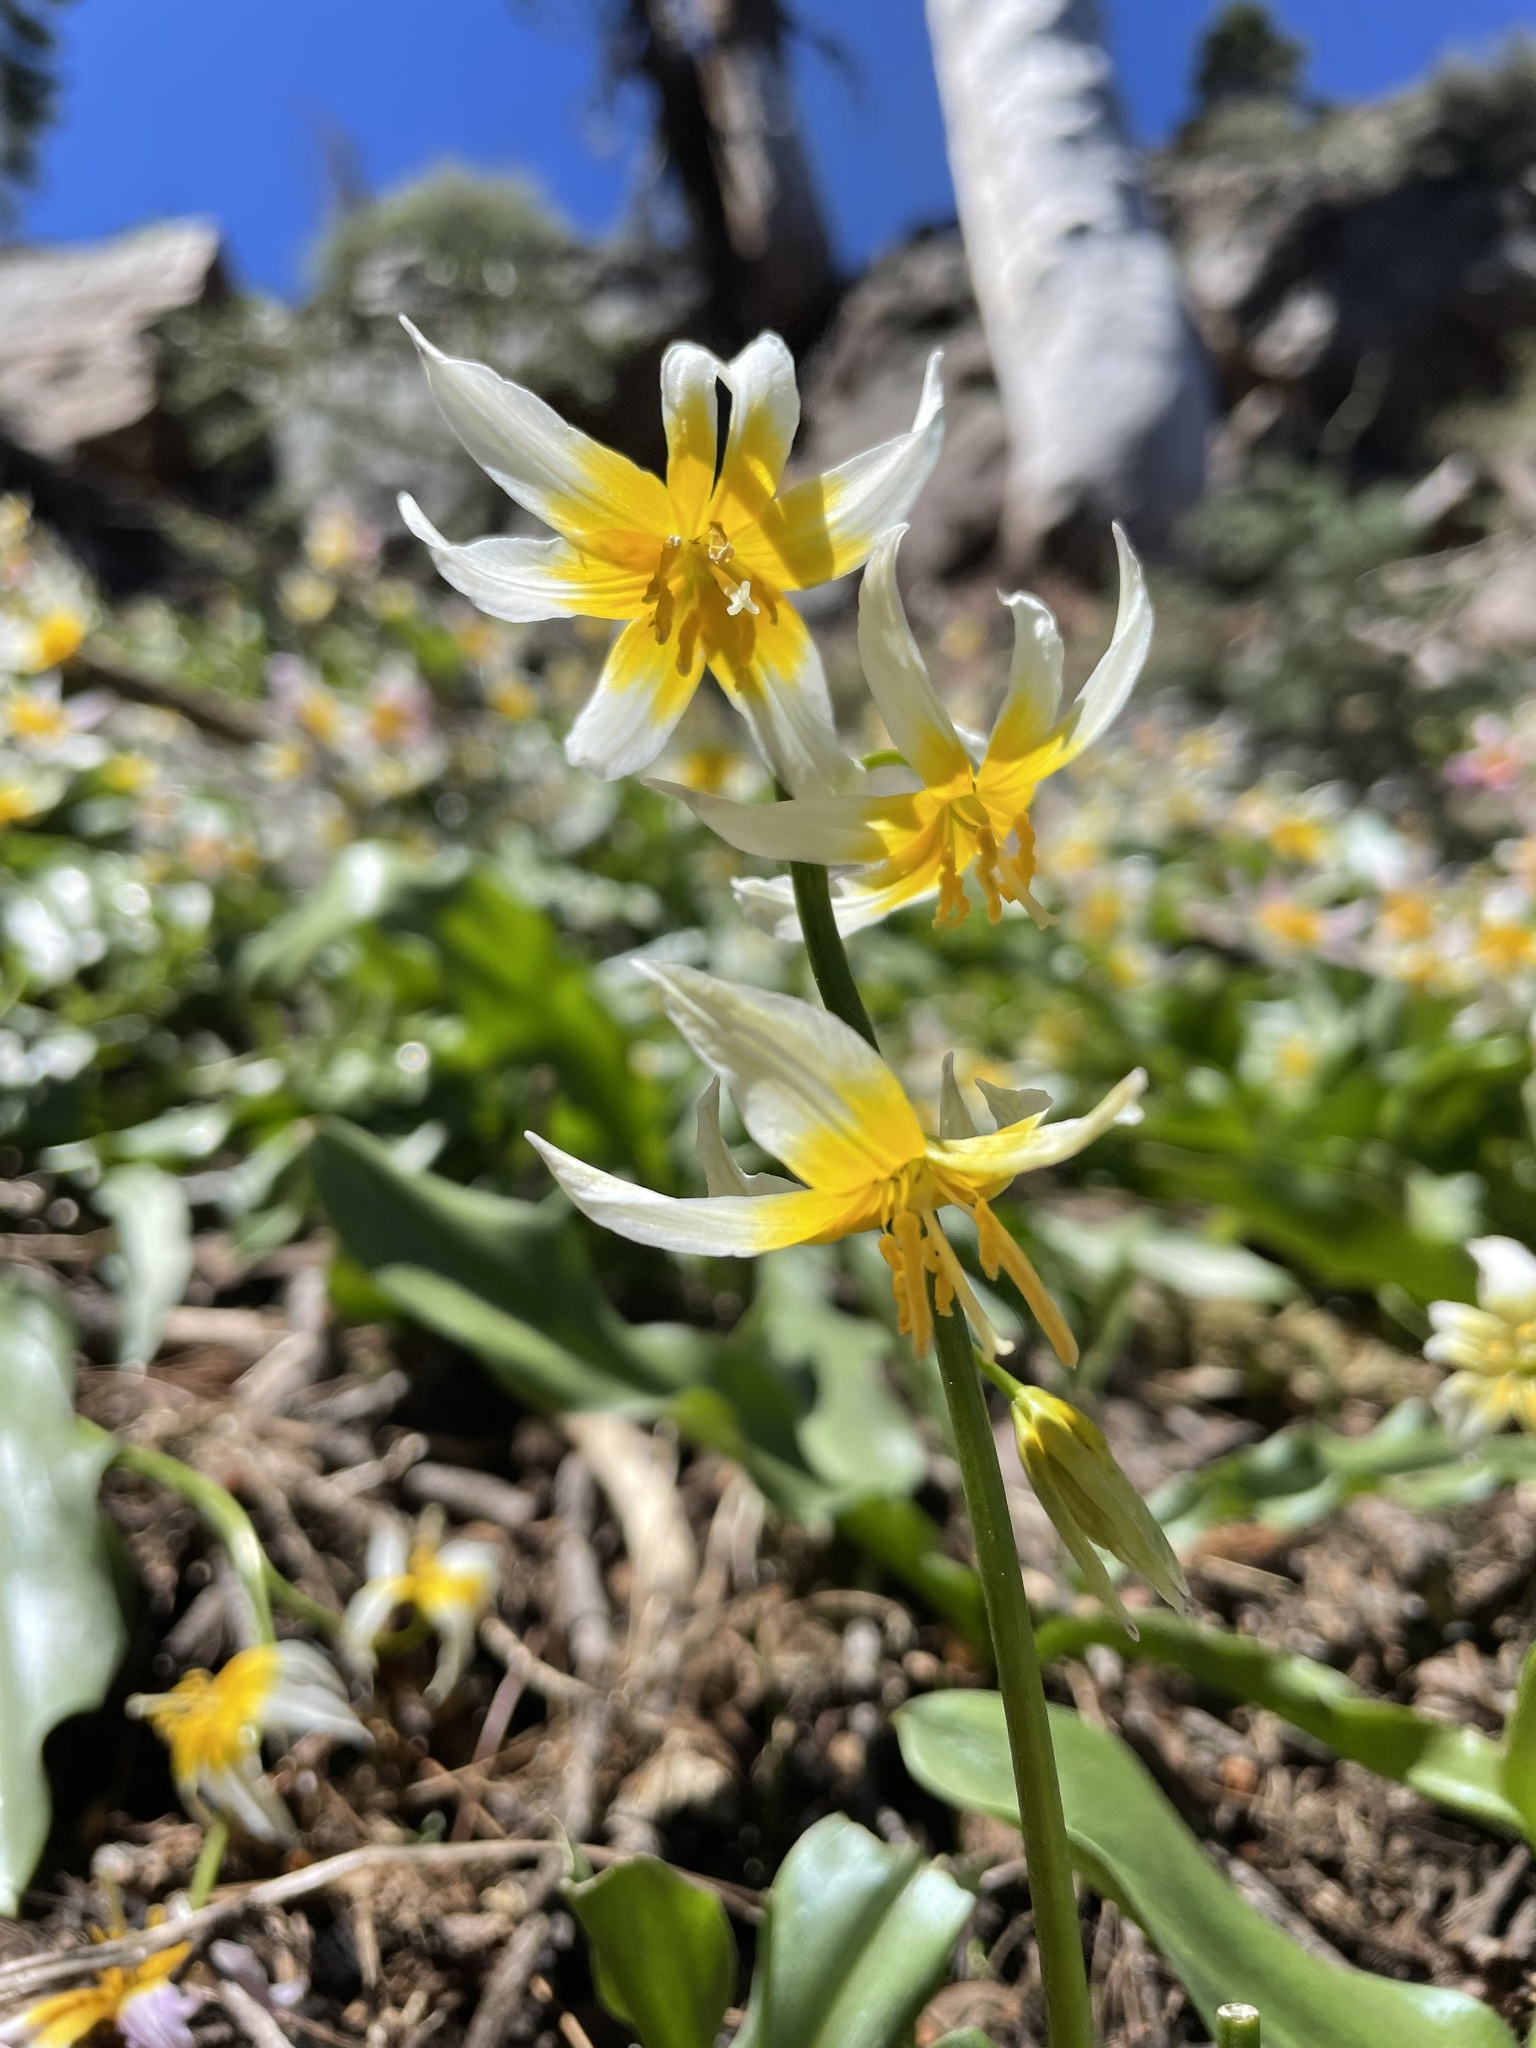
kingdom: Plantae
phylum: Tracheophyta
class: Liliopsida
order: Liliales
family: Liliaceae
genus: Erythronium
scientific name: Erythronium pusaterii
